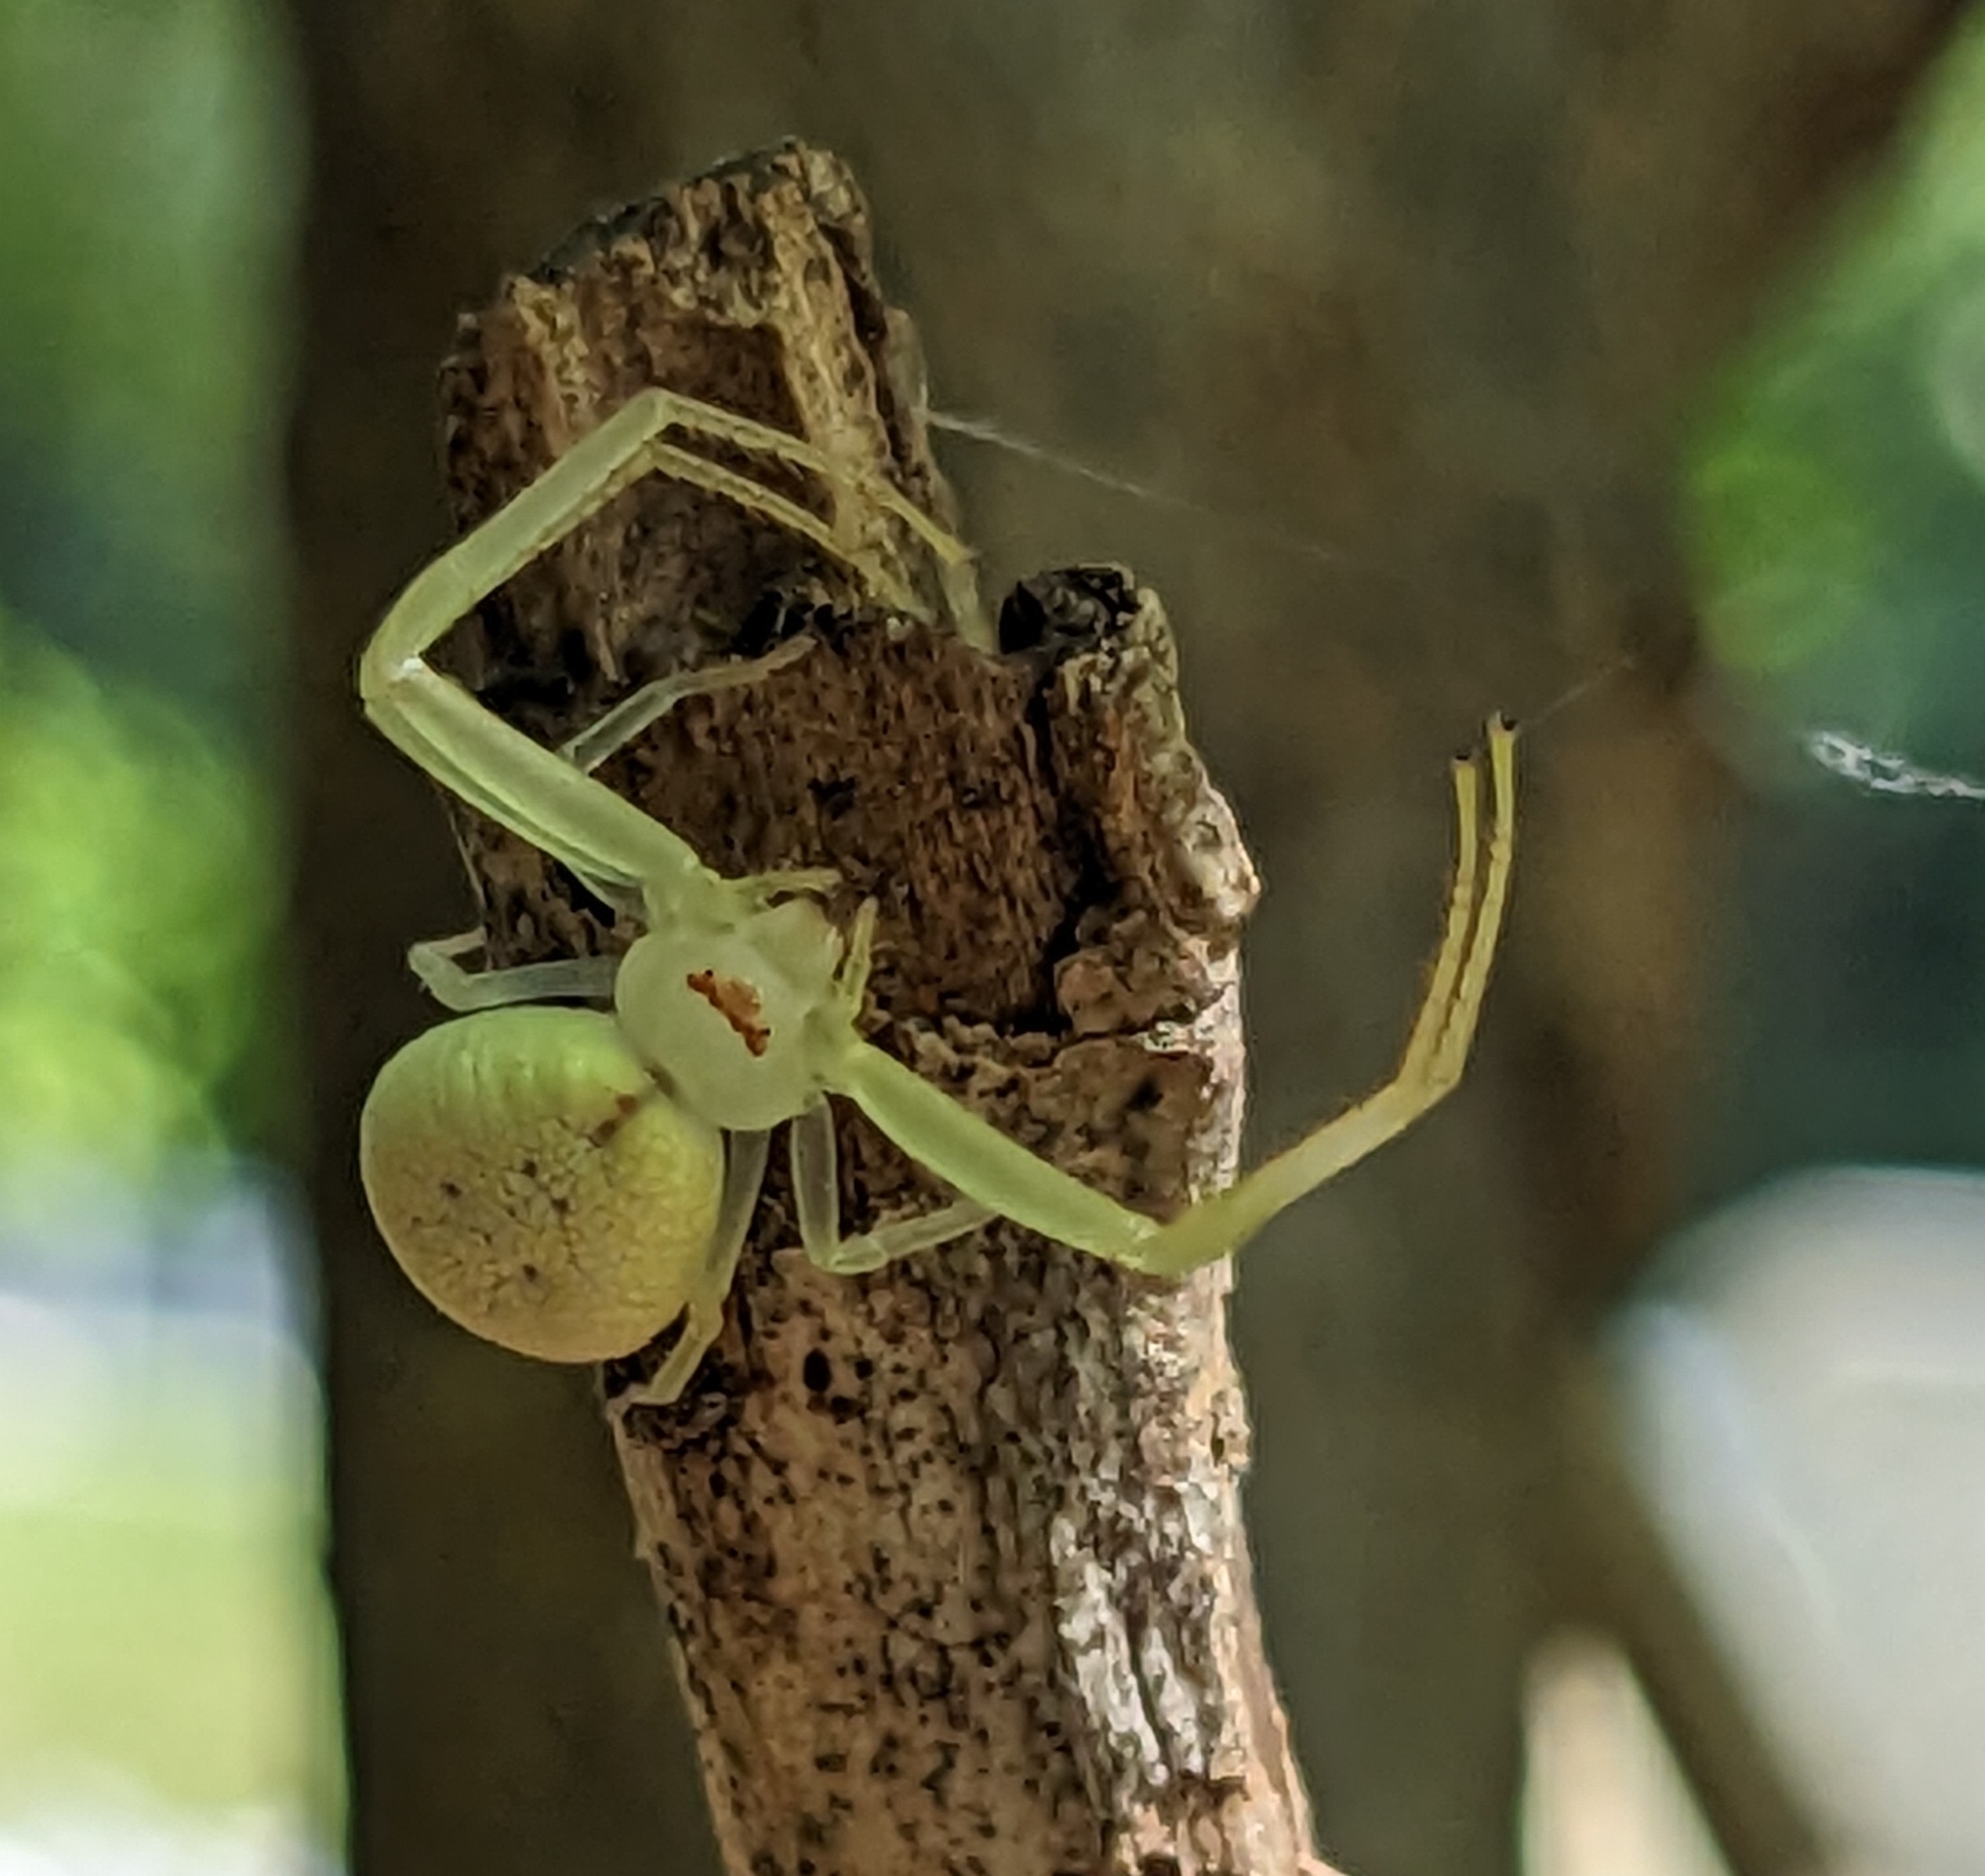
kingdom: Animalia
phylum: Arthropoda
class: Arachnida
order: Araneae
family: Thomisidae
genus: Misumessus
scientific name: Misumessus oblongus
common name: American green crab spider
